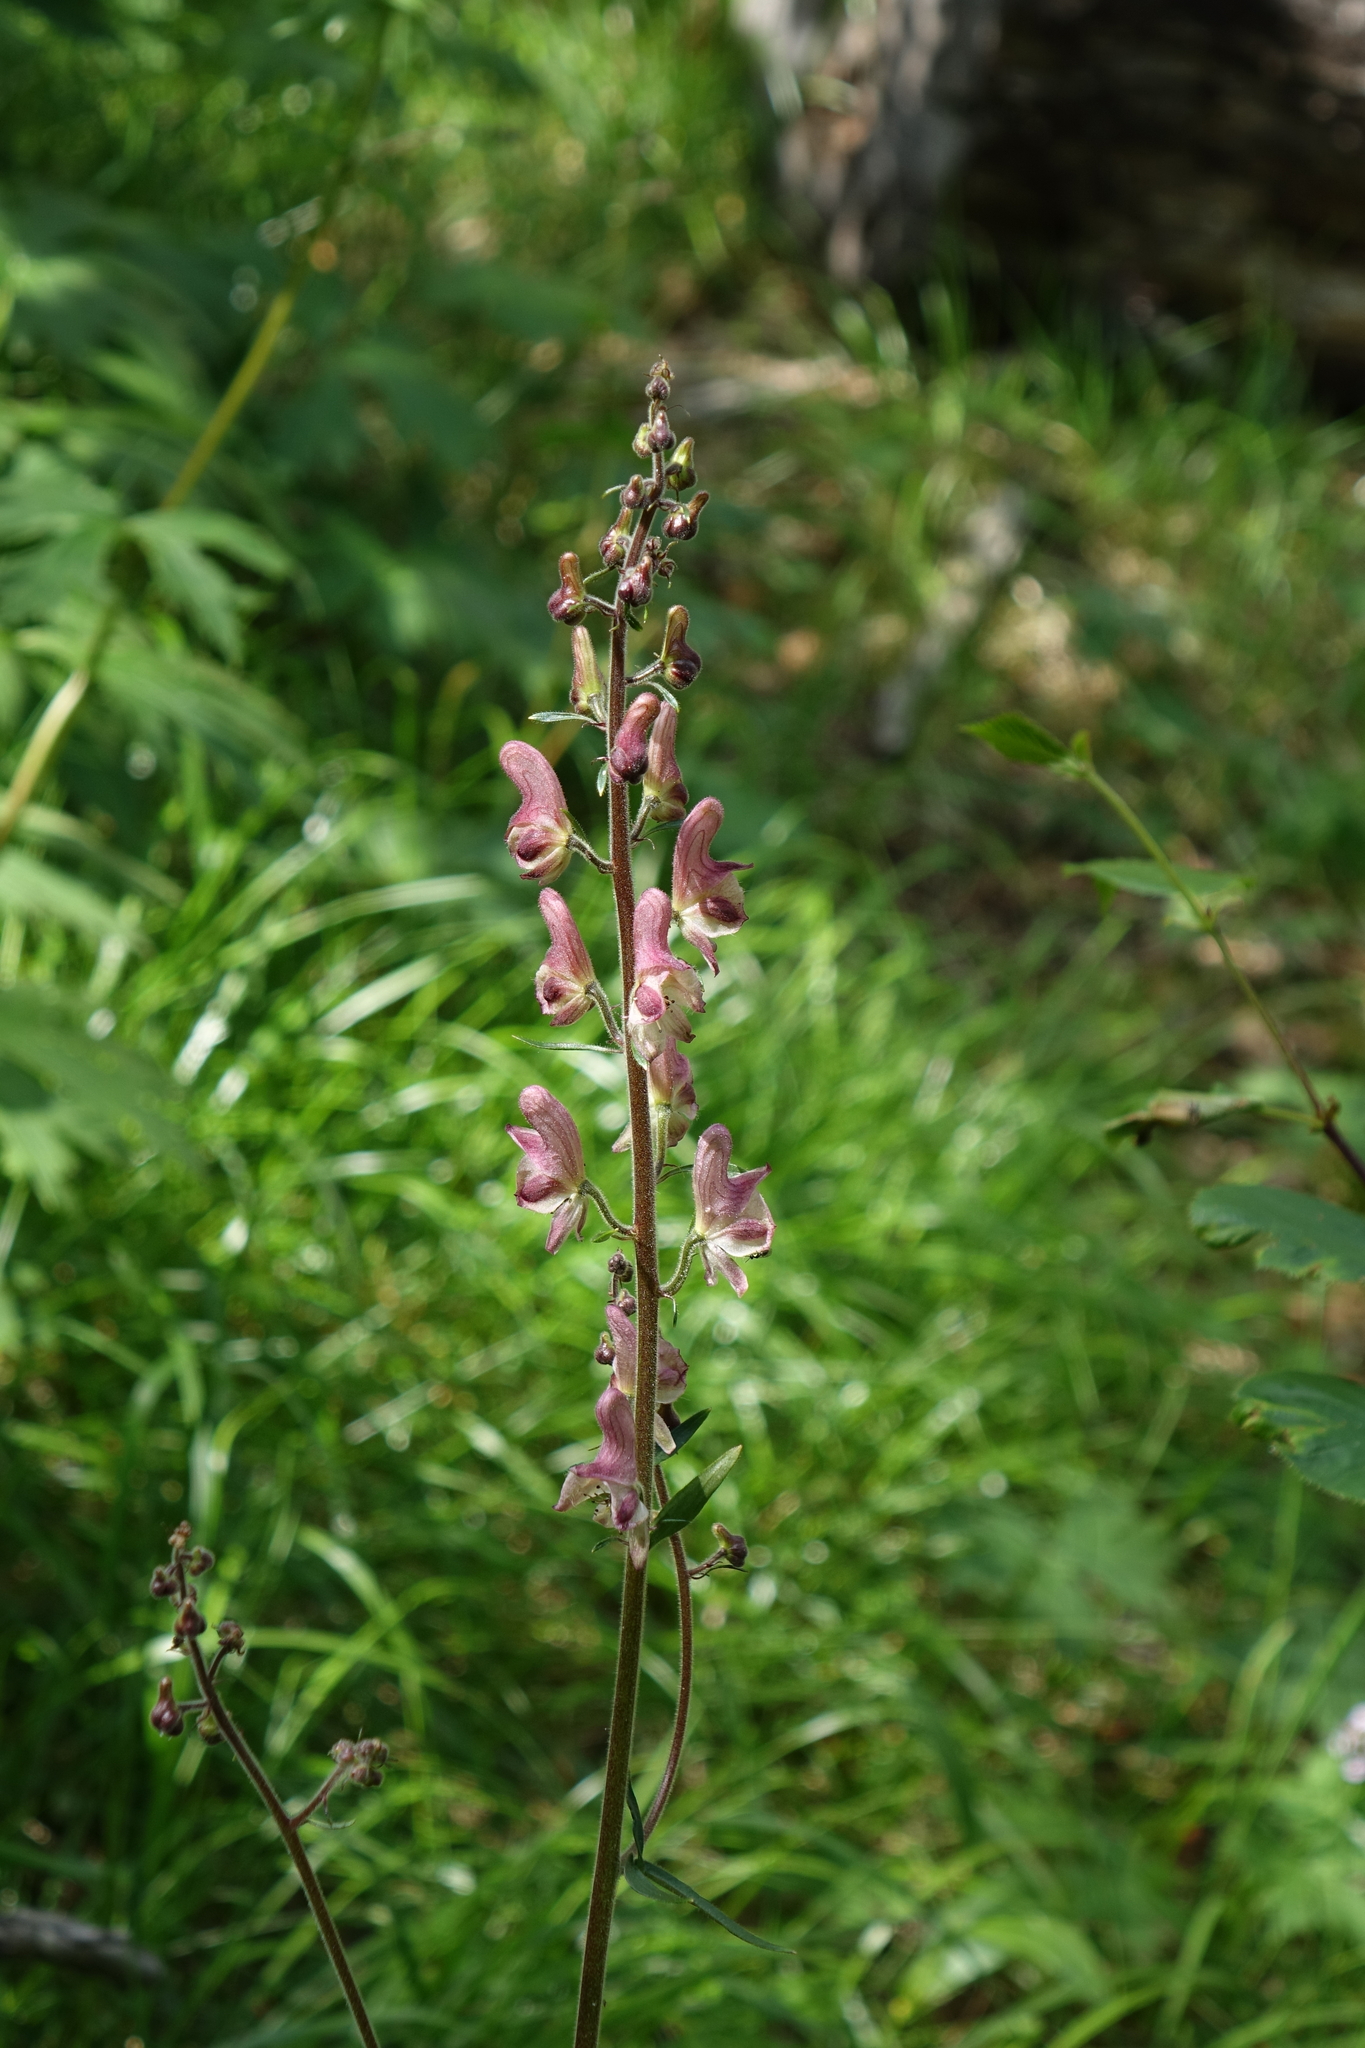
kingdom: Plantae
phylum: Tracheophyta
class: Magnoliopsida
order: Ranunculales
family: Ranunculaceae
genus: Aconitum
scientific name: Aconitum septentrionale
